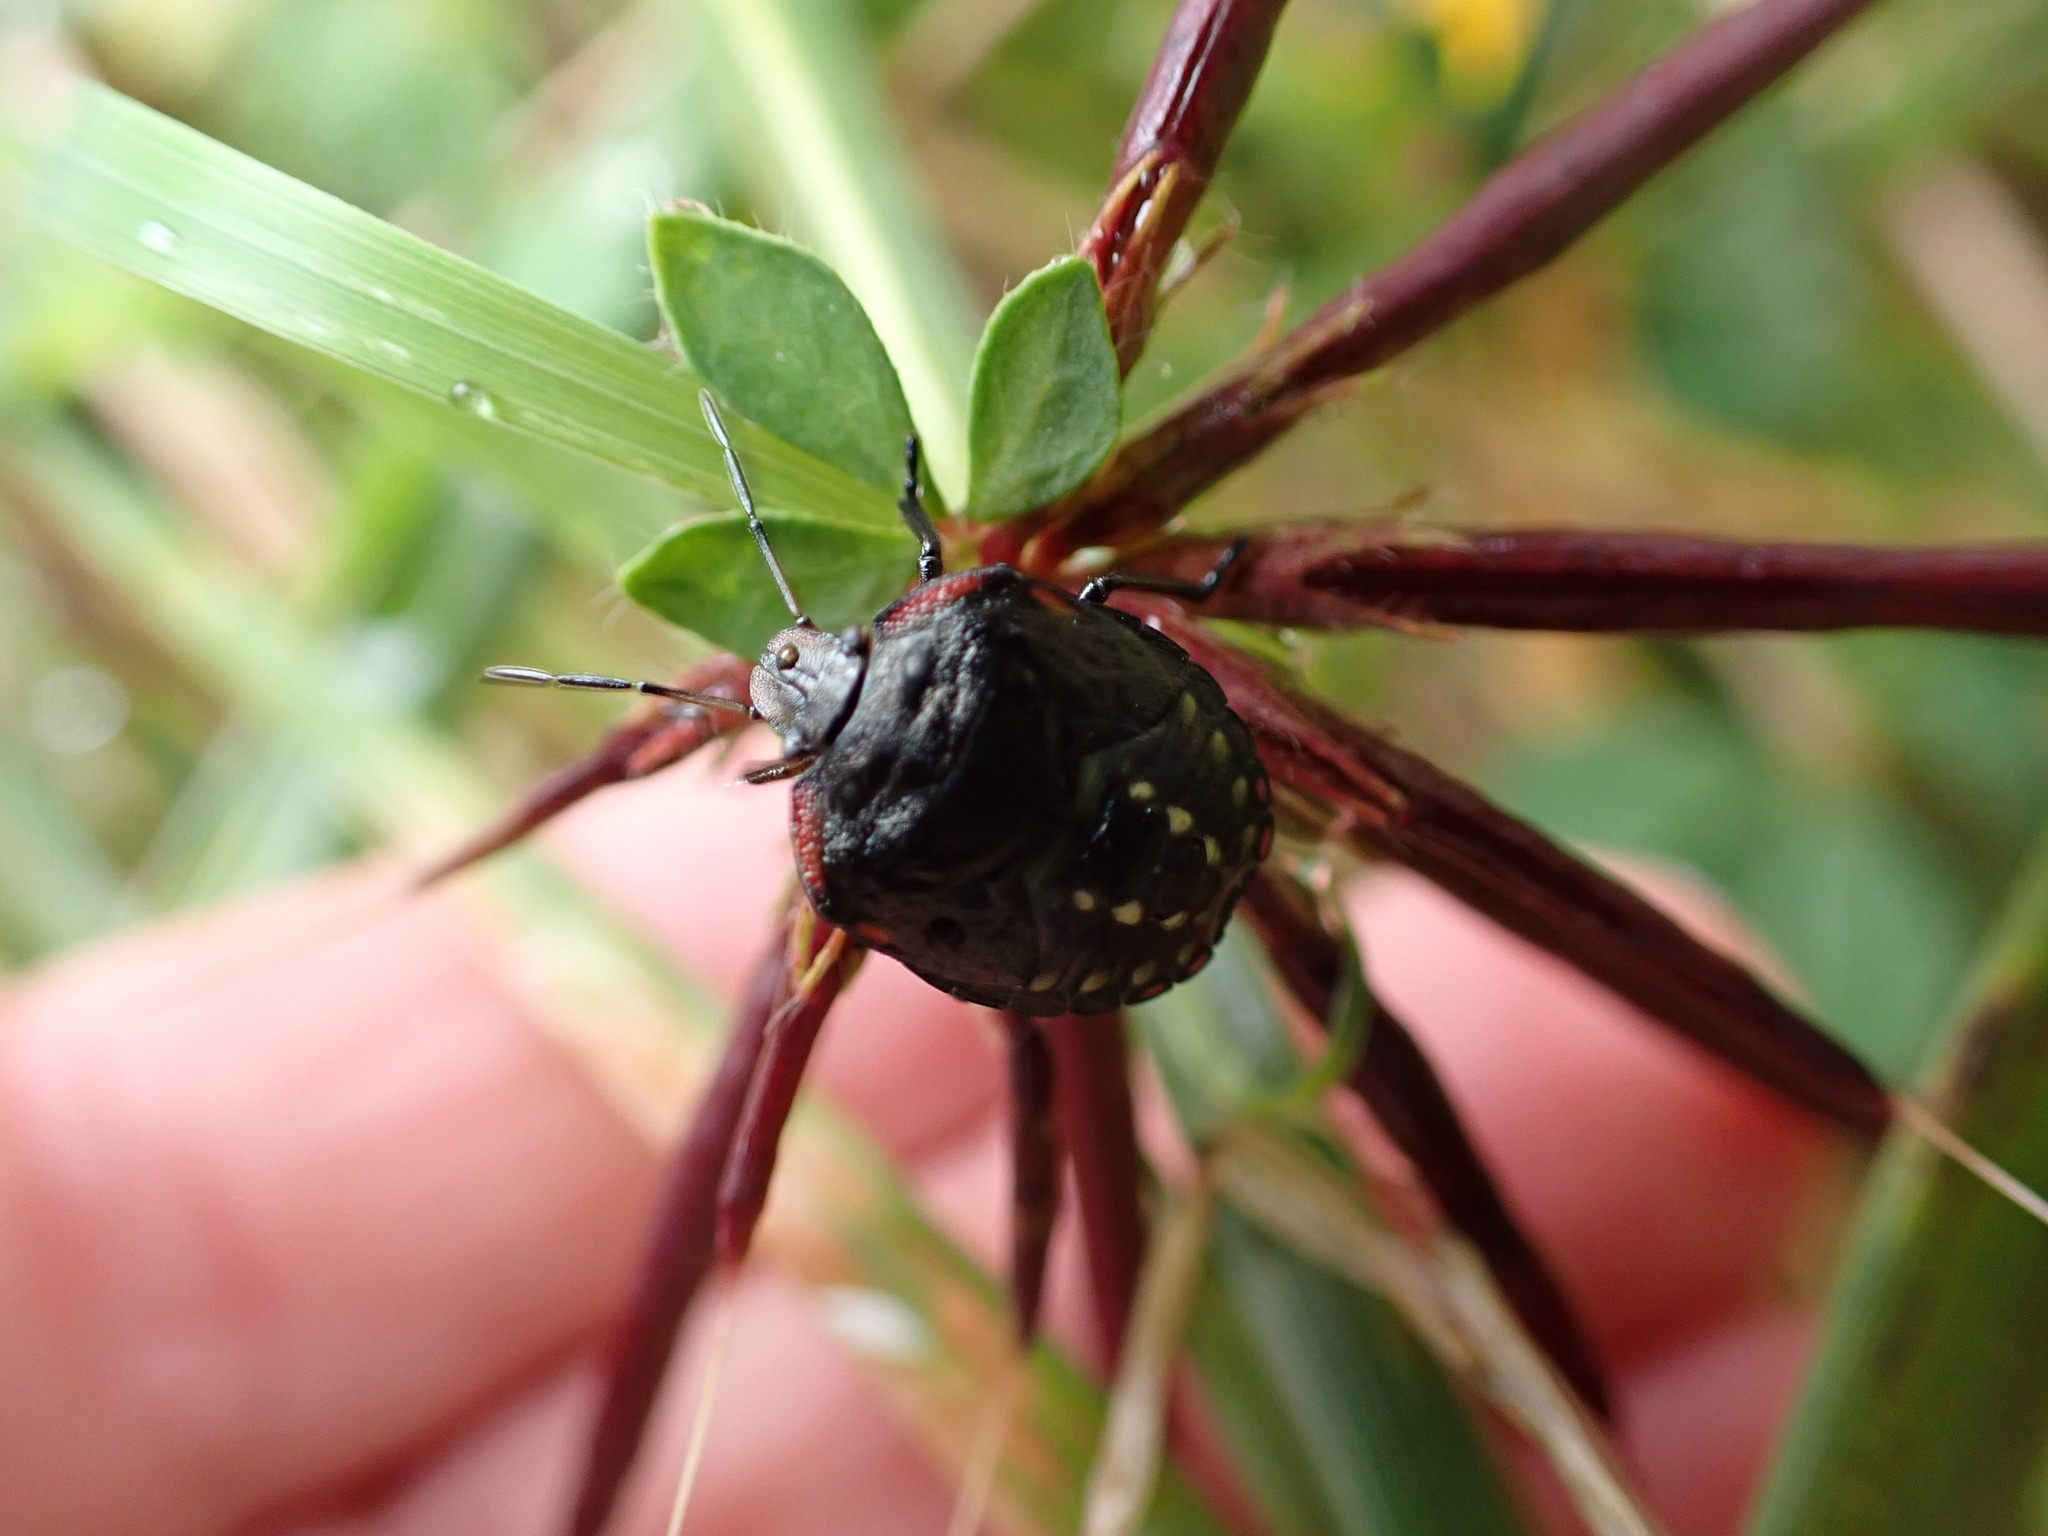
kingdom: Animalia
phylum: Arthropoda
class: Insecta
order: Hemiptera
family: Pentatomidae
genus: Nezara
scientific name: Nezara viridula
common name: Southern green stink bug
